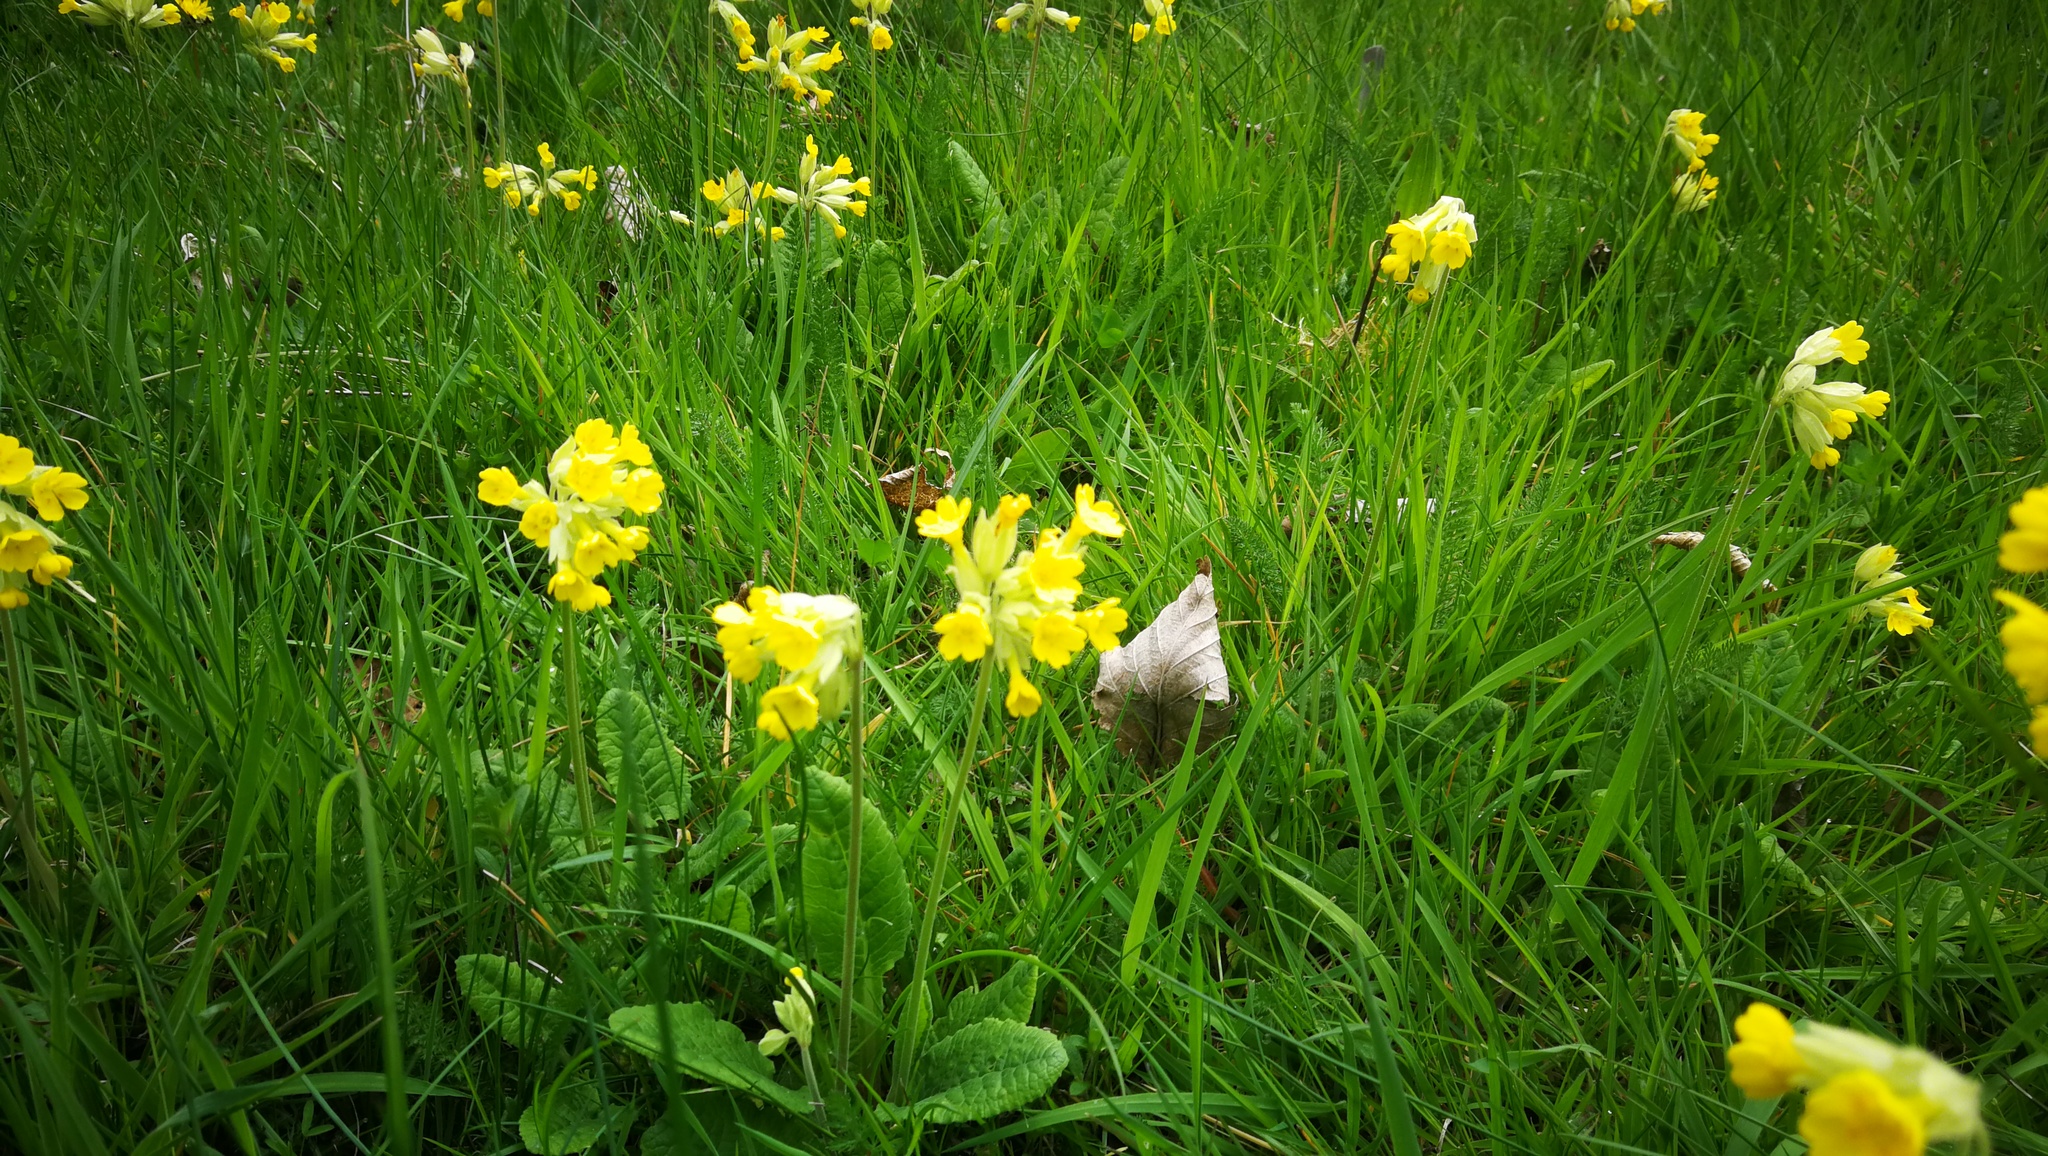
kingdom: Plantae
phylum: Tracheophyta
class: Magnoliopsida
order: Ericales
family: Primulaceae
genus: Primula
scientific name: Primula veris
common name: Cowslip
